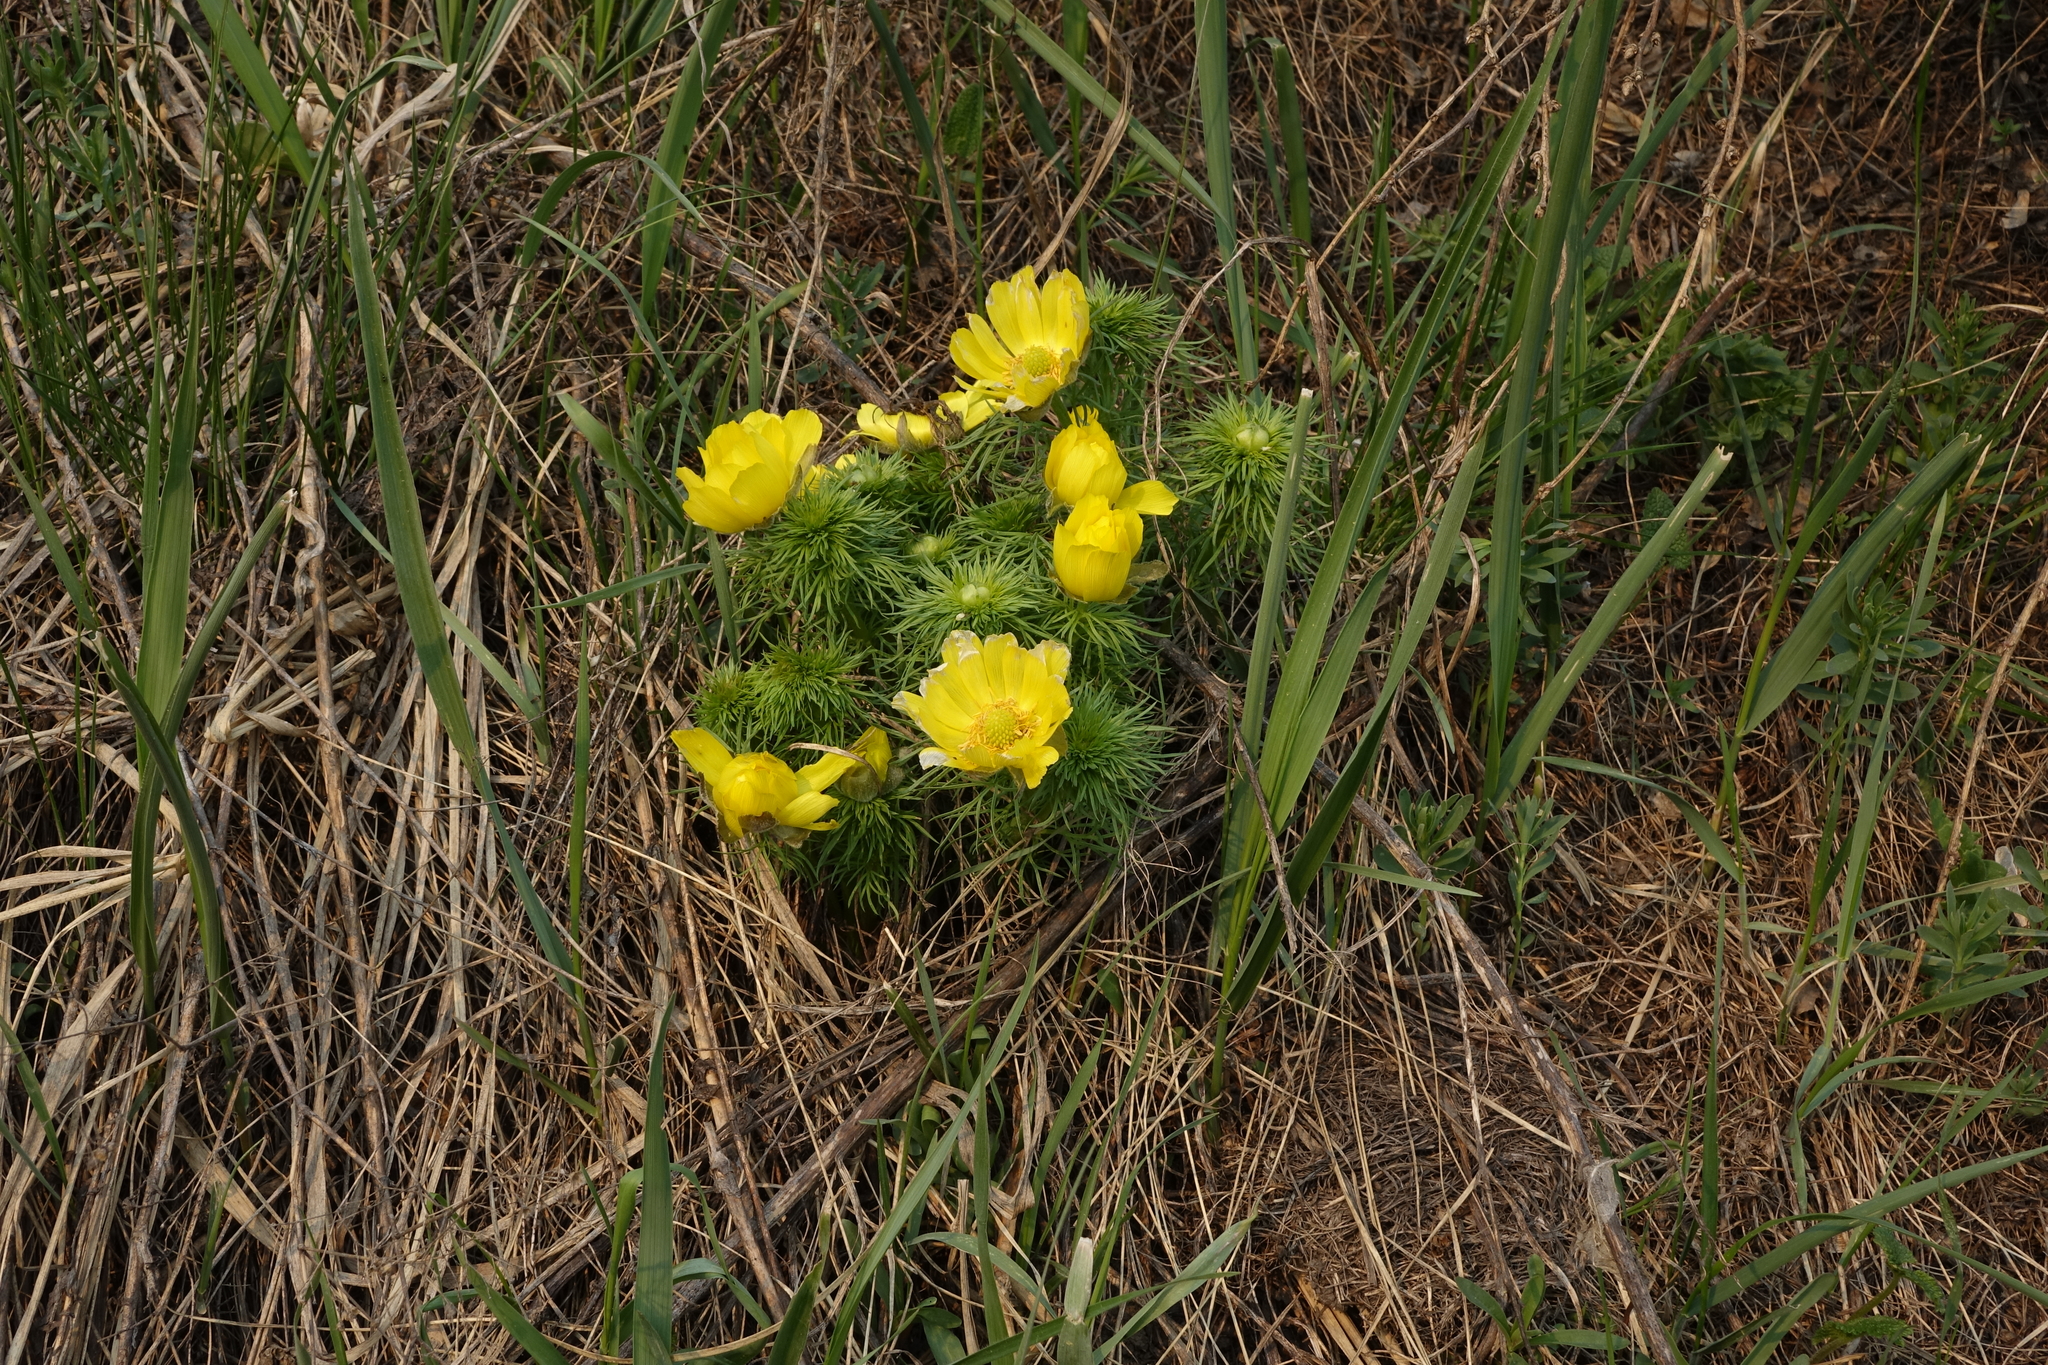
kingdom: Plantae
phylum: Tracheophyta
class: Magnoliopsida
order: Ranunculales
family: Ranunculaceae
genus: Adonis
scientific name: Adonis vernalis
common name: Yellow pheasants-eye
